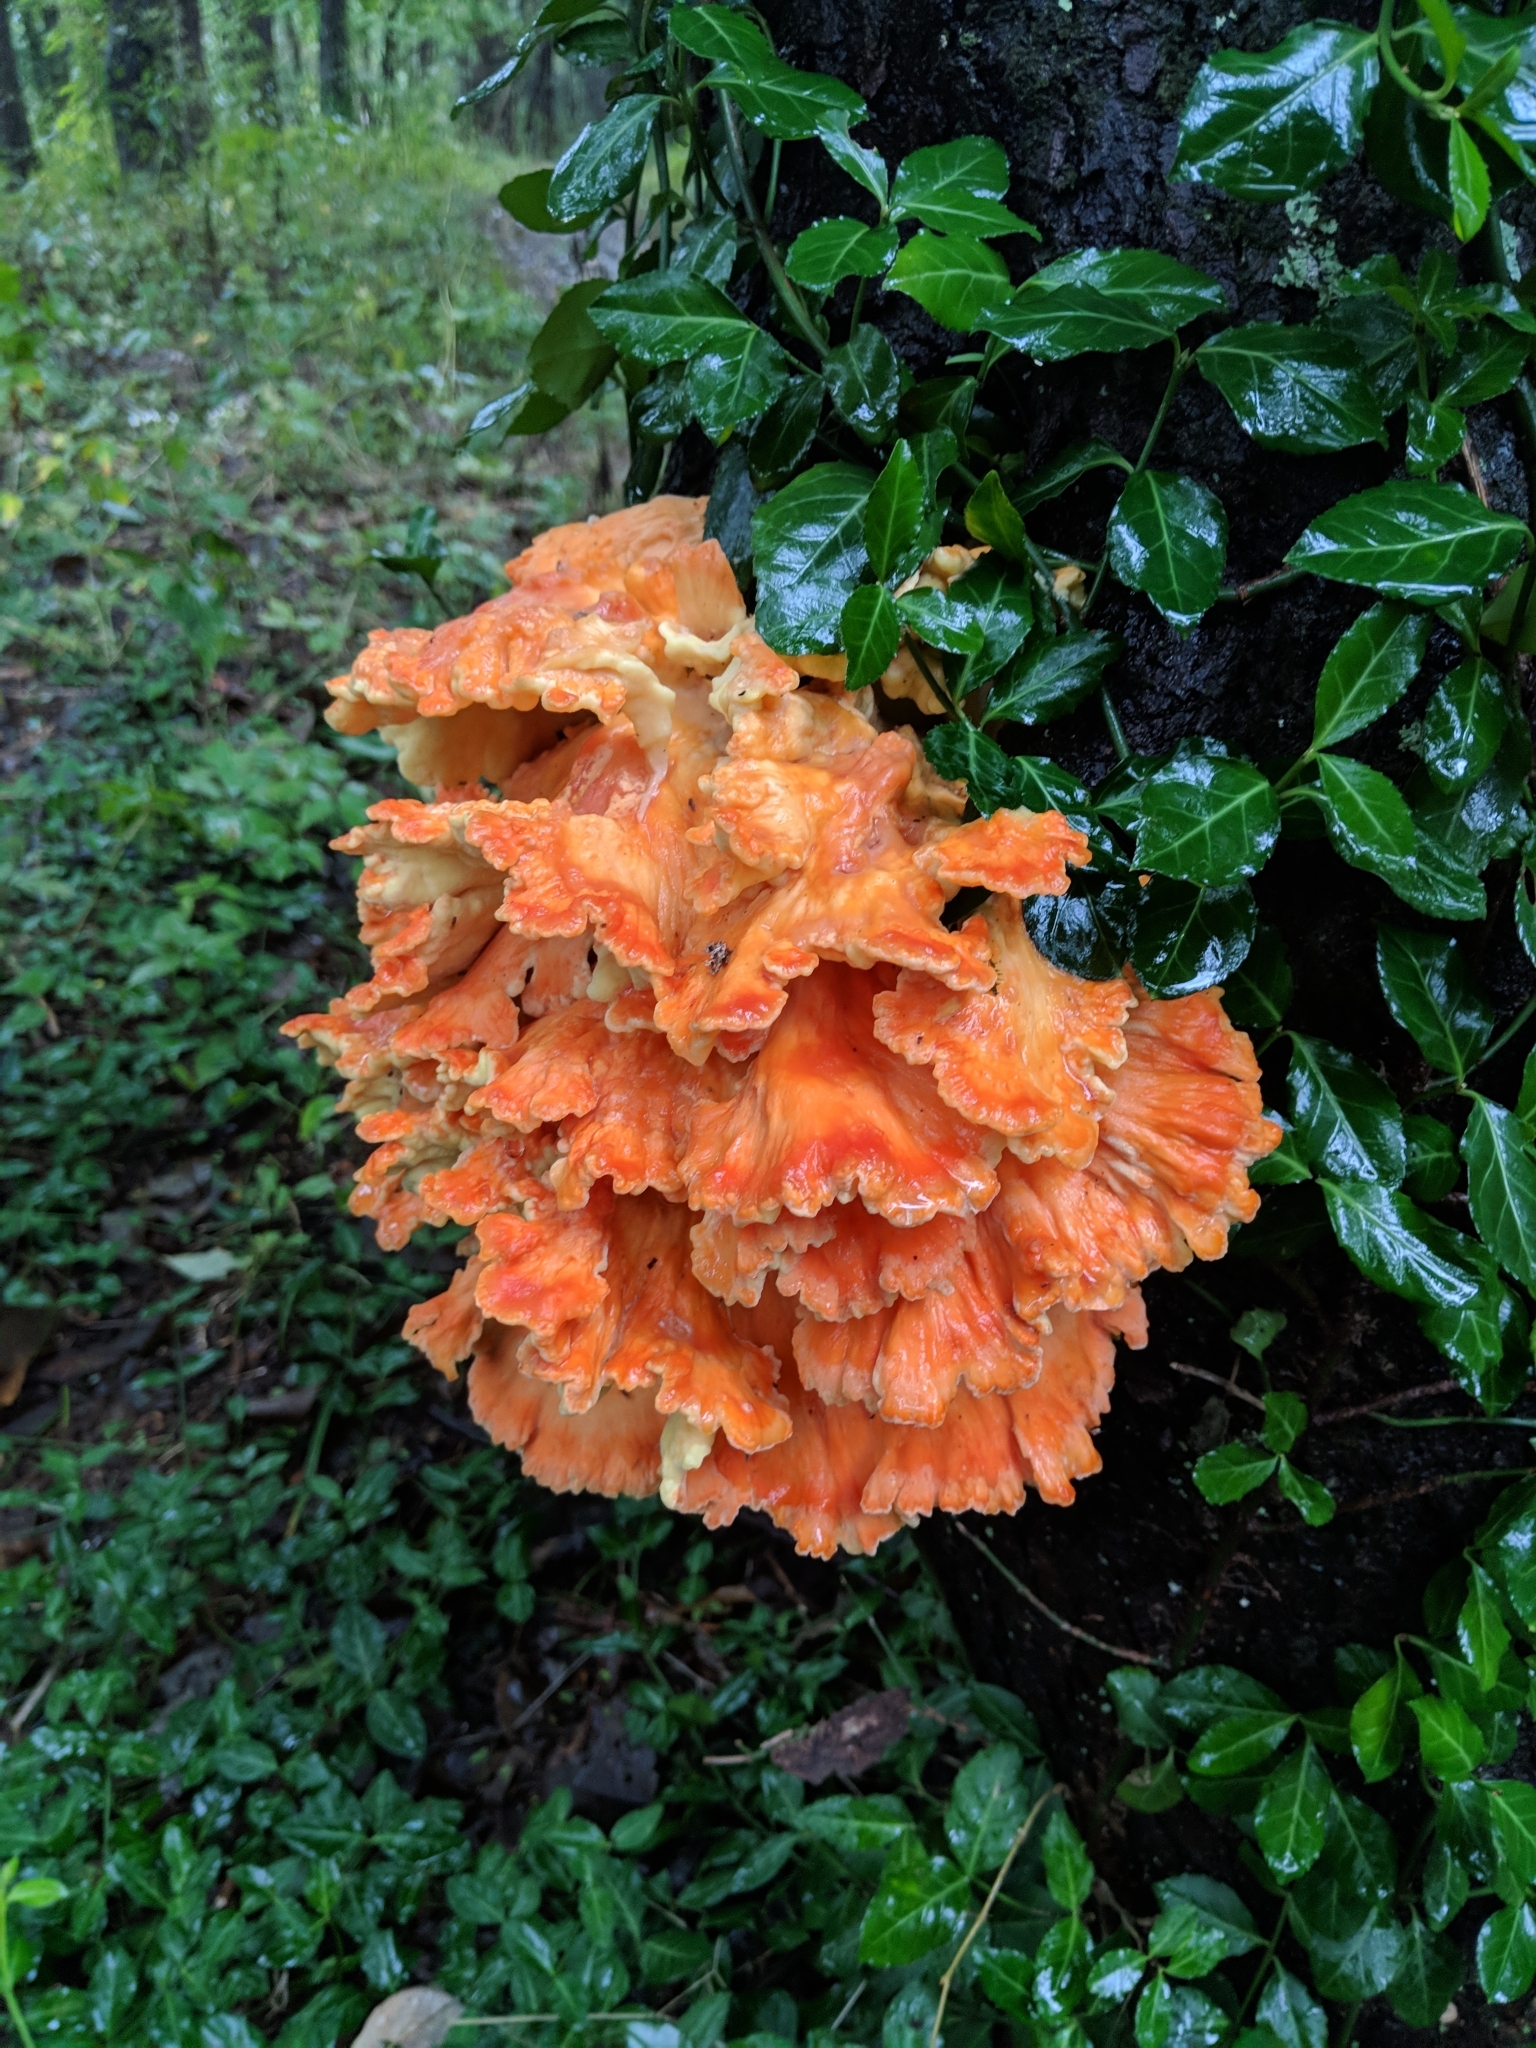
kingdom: Fungi
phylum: Basidiomycota
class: Agaricomycetes
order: Polyporales
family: Laetiporaceae
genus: Laetiporus
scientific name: Laetiporus sulphureus
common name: Chicken of the woods
